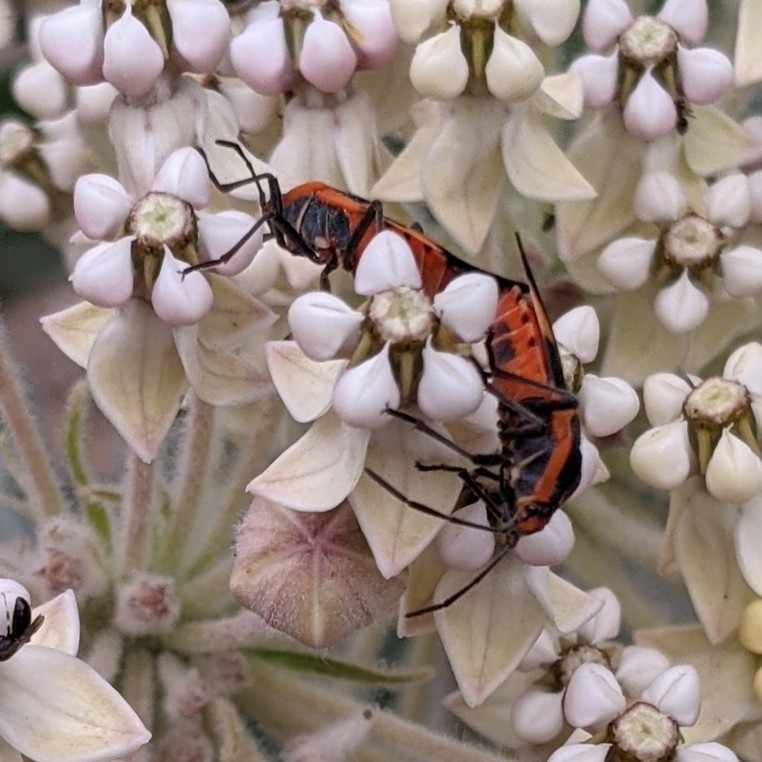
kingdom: Animalia
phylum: Arthropoda
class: Insecta
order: Hemiptera
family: Lygaeidae
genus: Oncopeltus
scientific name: Oncopeltus fasciatus
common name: Large milkweed bug
